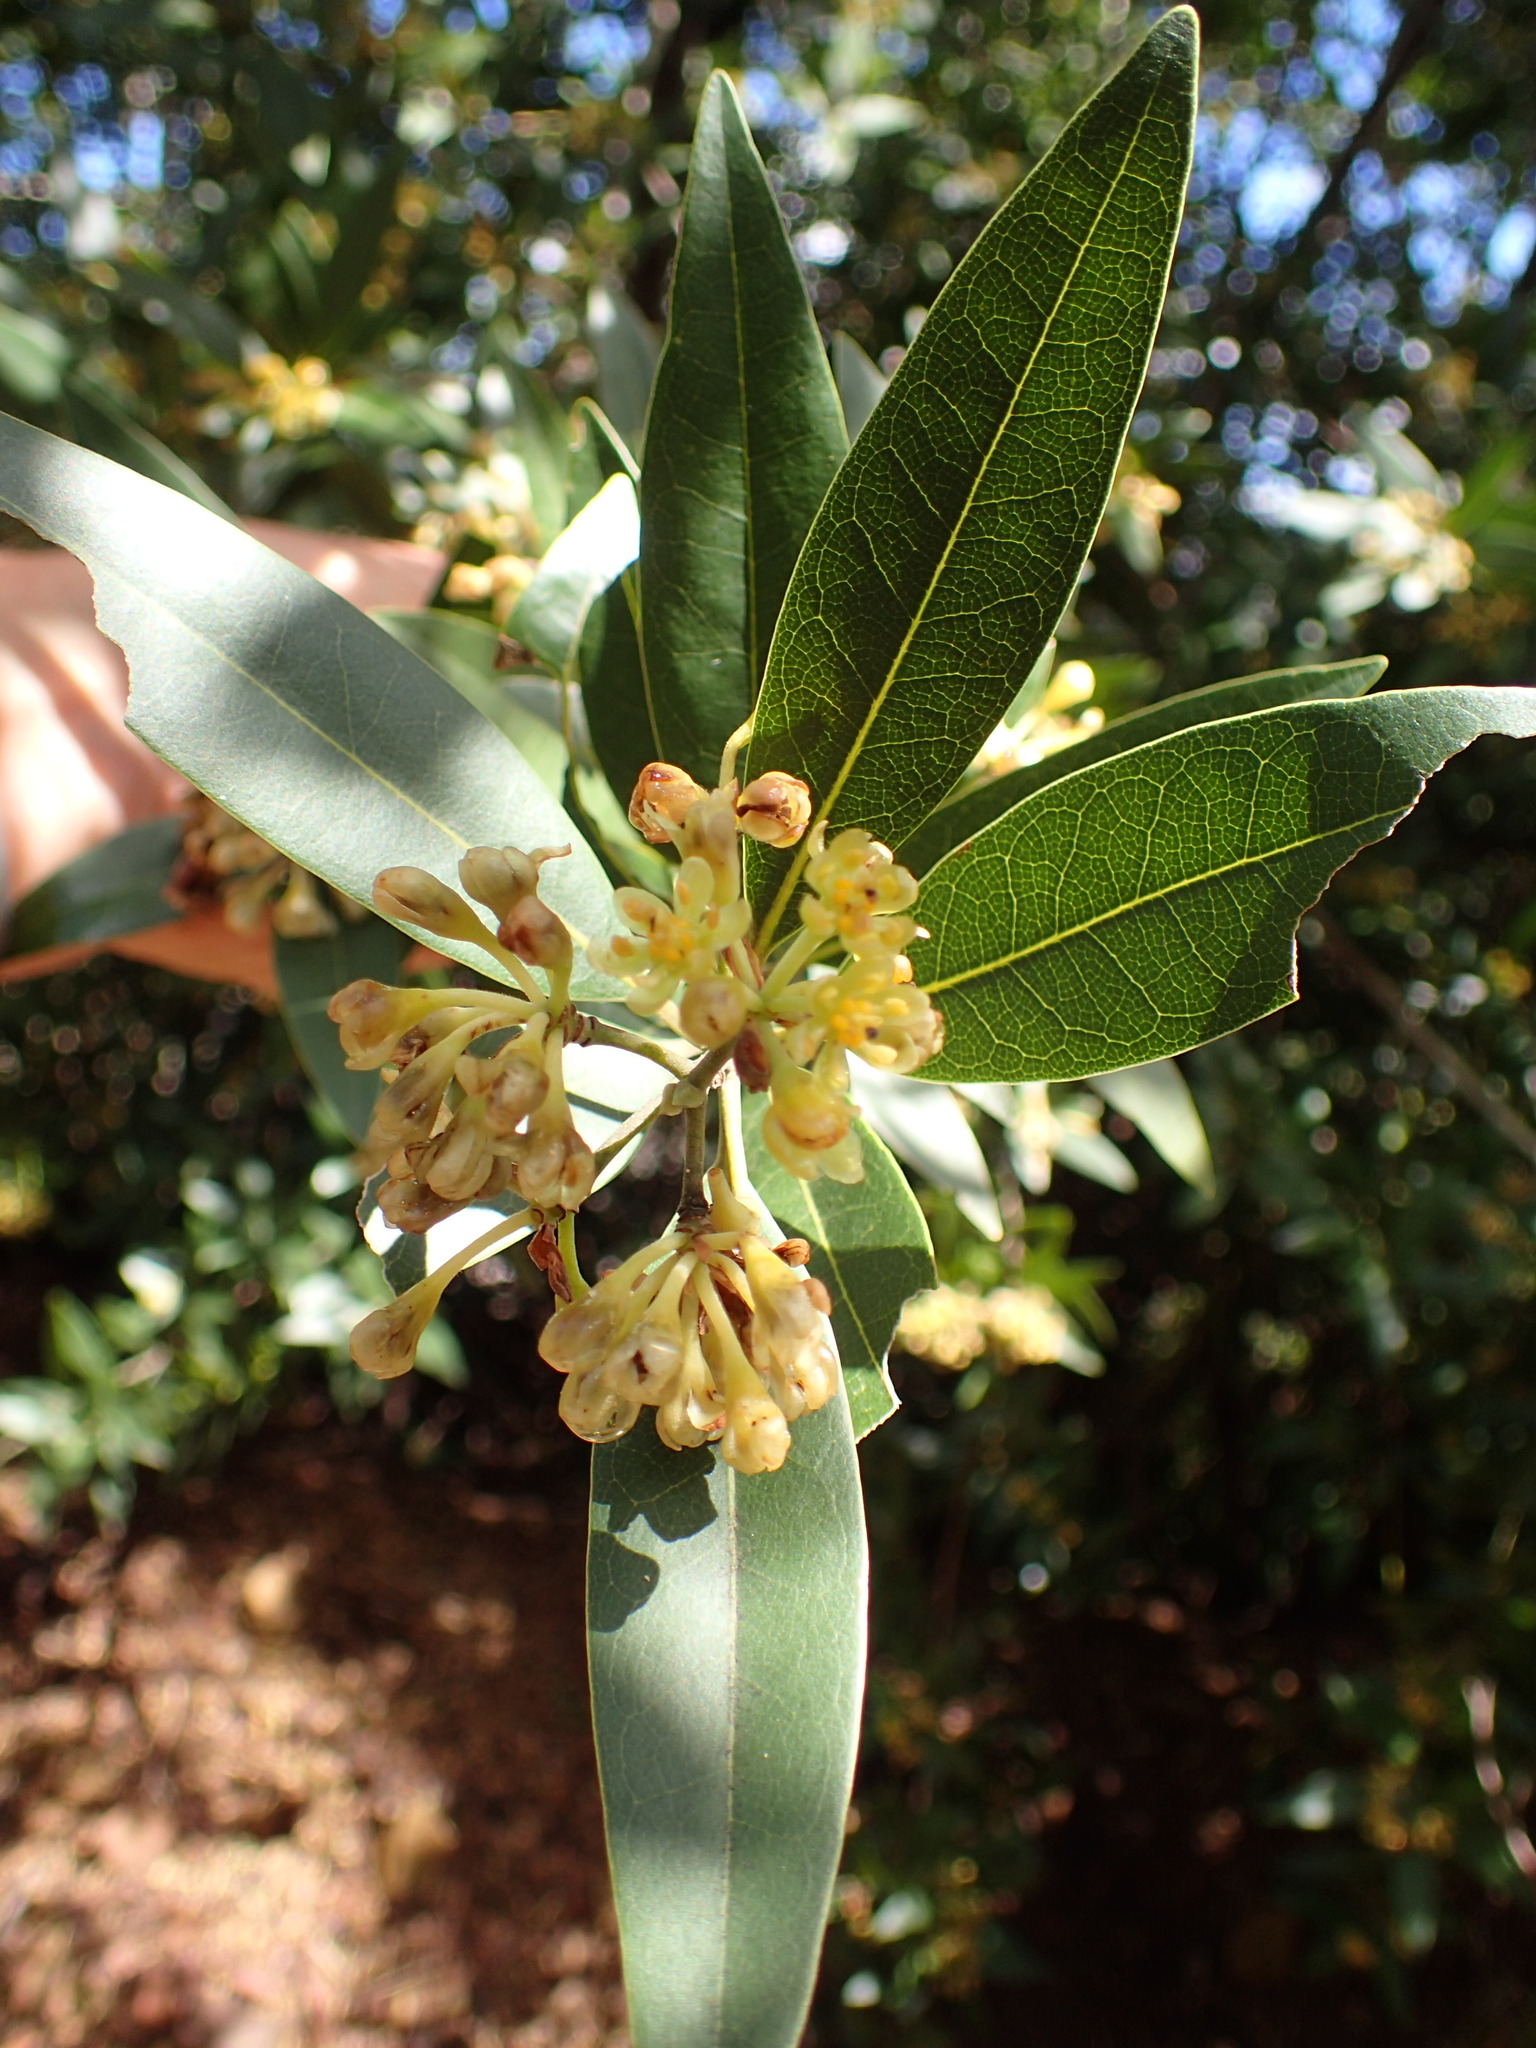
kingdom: Plantae
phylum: Tracheophyta
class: Magnoliopsida
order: Laurales
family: Lauraceae
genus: Umbellularia
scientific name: Umbellularia californica
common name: California bay
